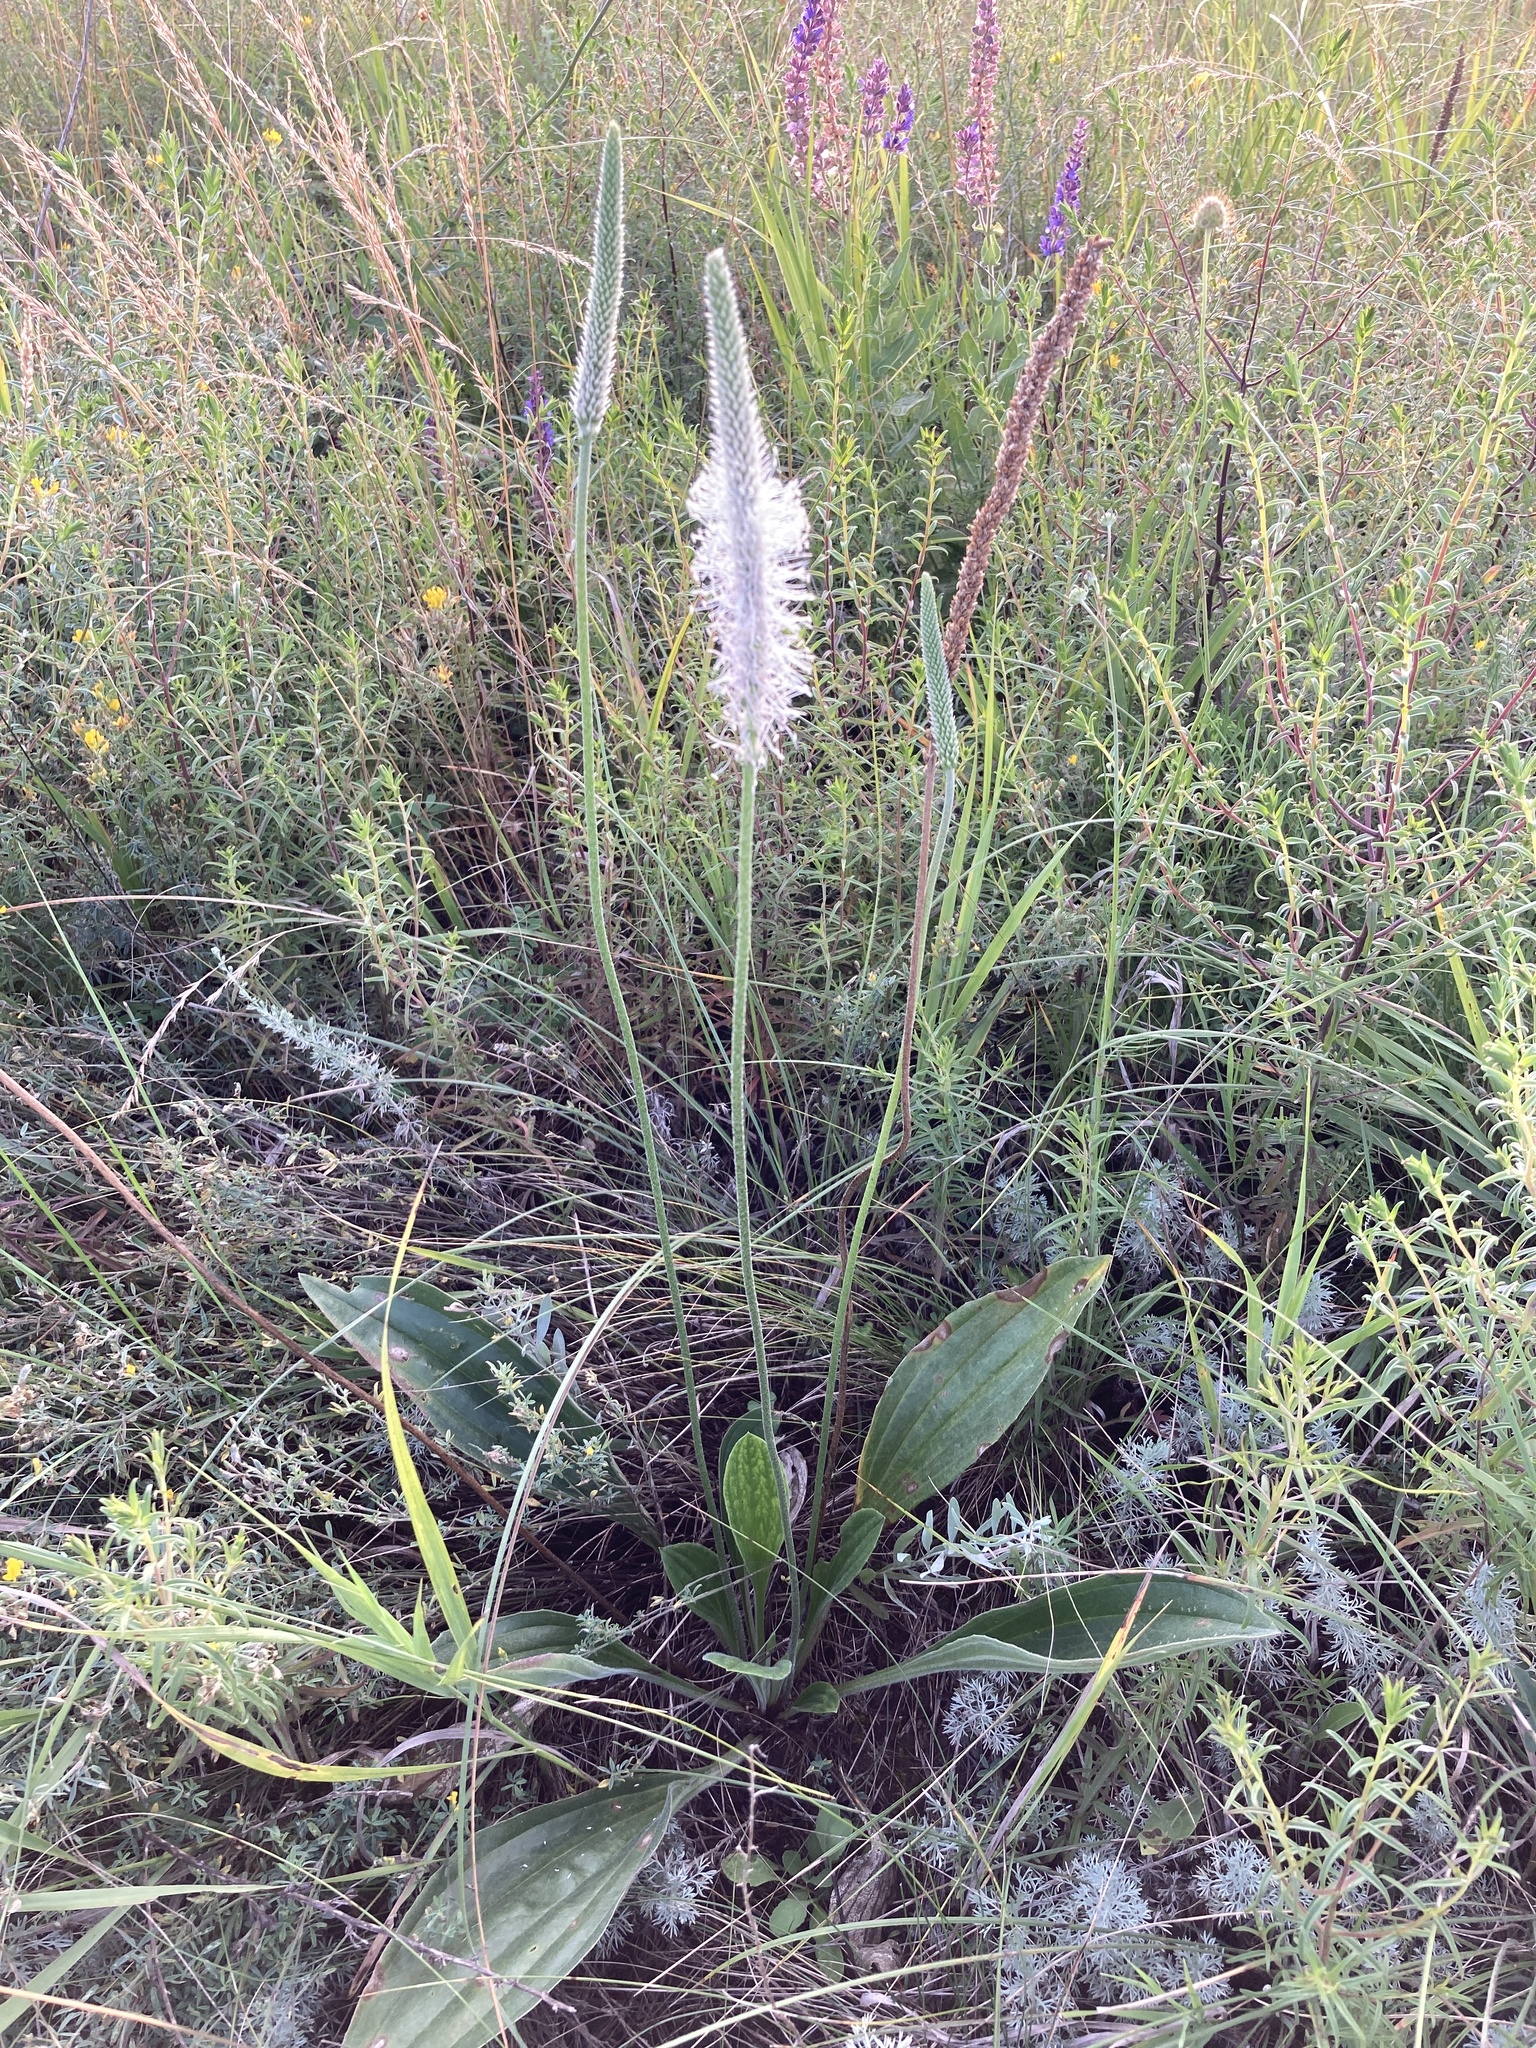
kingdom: Plantae
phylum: Tracheophyta
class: Magnoliopsida
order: Lamiales
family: Plantaginaceae
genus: Plantago
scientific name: Plantago urvillei
